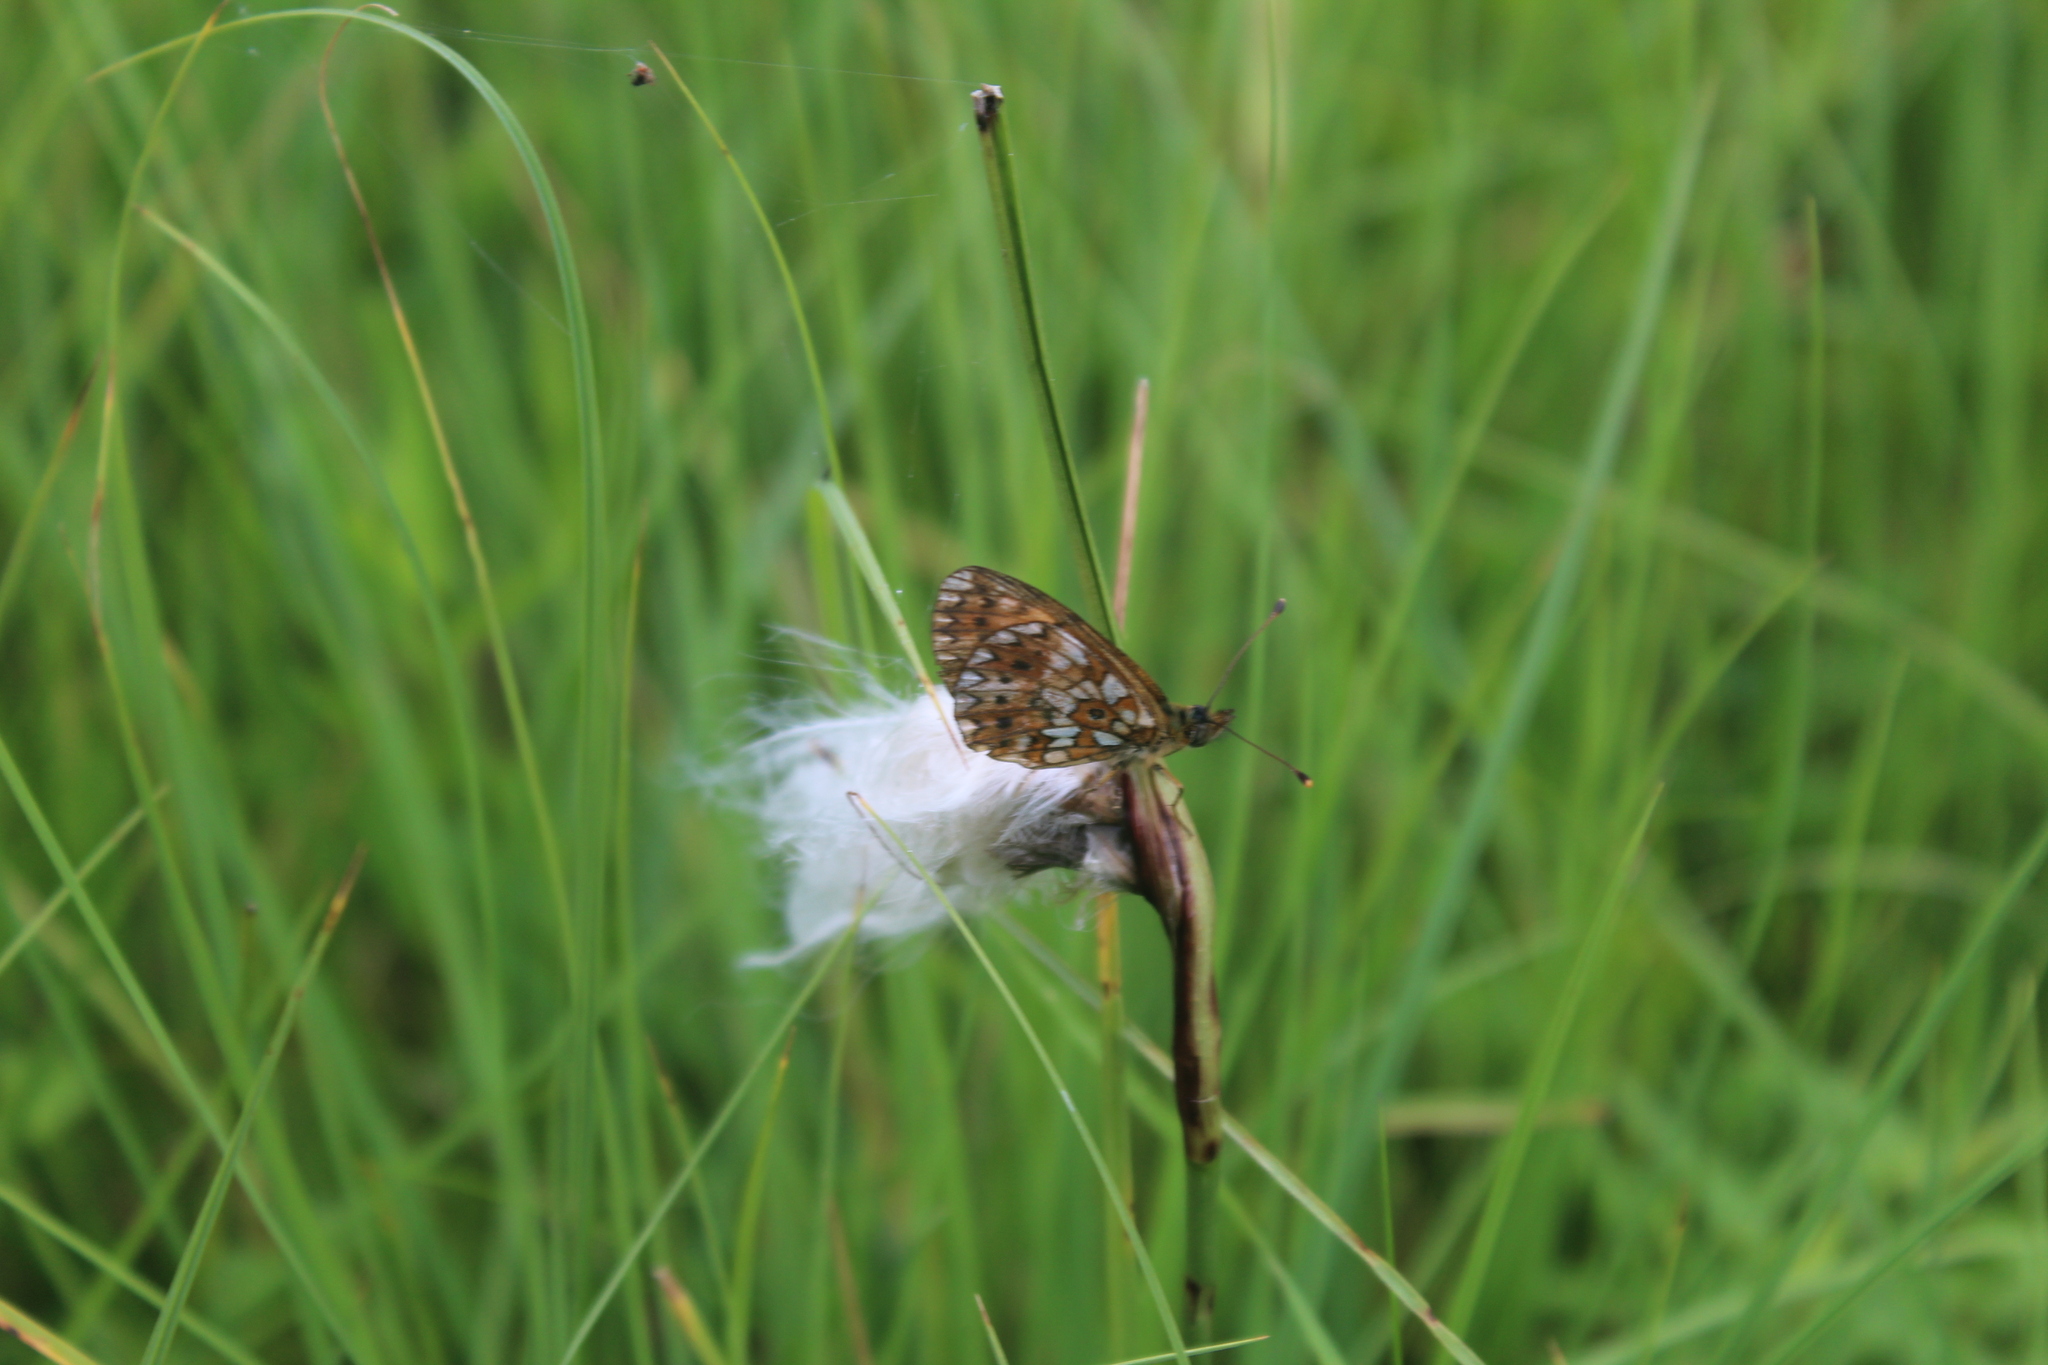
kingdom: Animalia
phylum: Arthropoda
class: Insecta
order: Lepidoptera
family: Nymphalidae
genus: Boloria
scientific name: Boloria selene
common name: Small pearl-bordered fritillary
